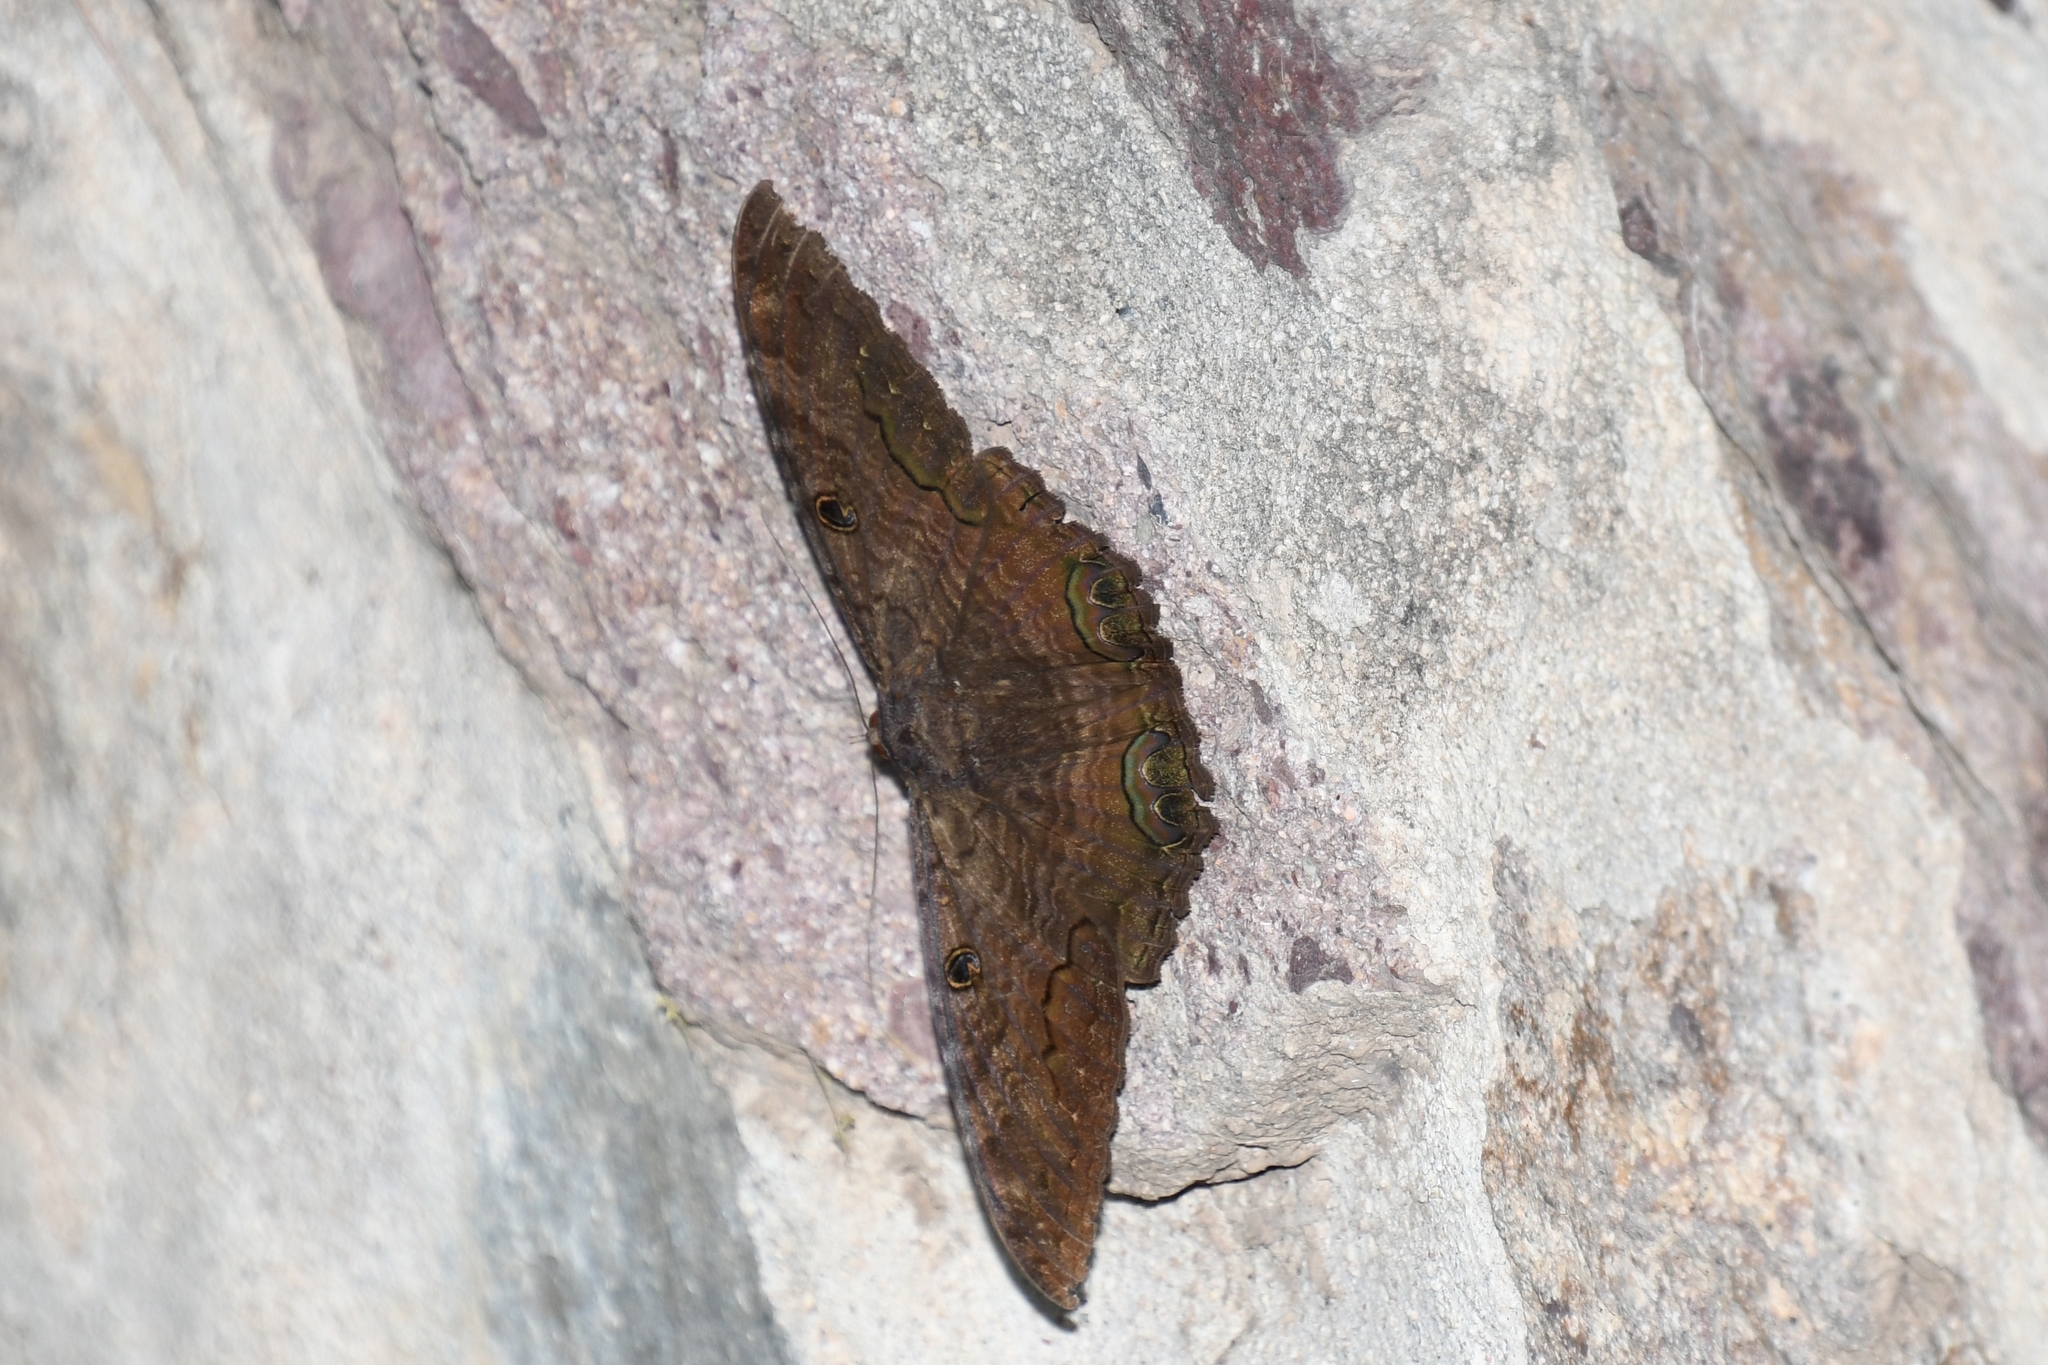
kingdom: Animalia
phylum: Arthropoda
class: Insecta
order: Lepidoptera
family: Erebidae
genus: Ascalapha
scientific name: Ascalapha odorata
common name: Black witch
